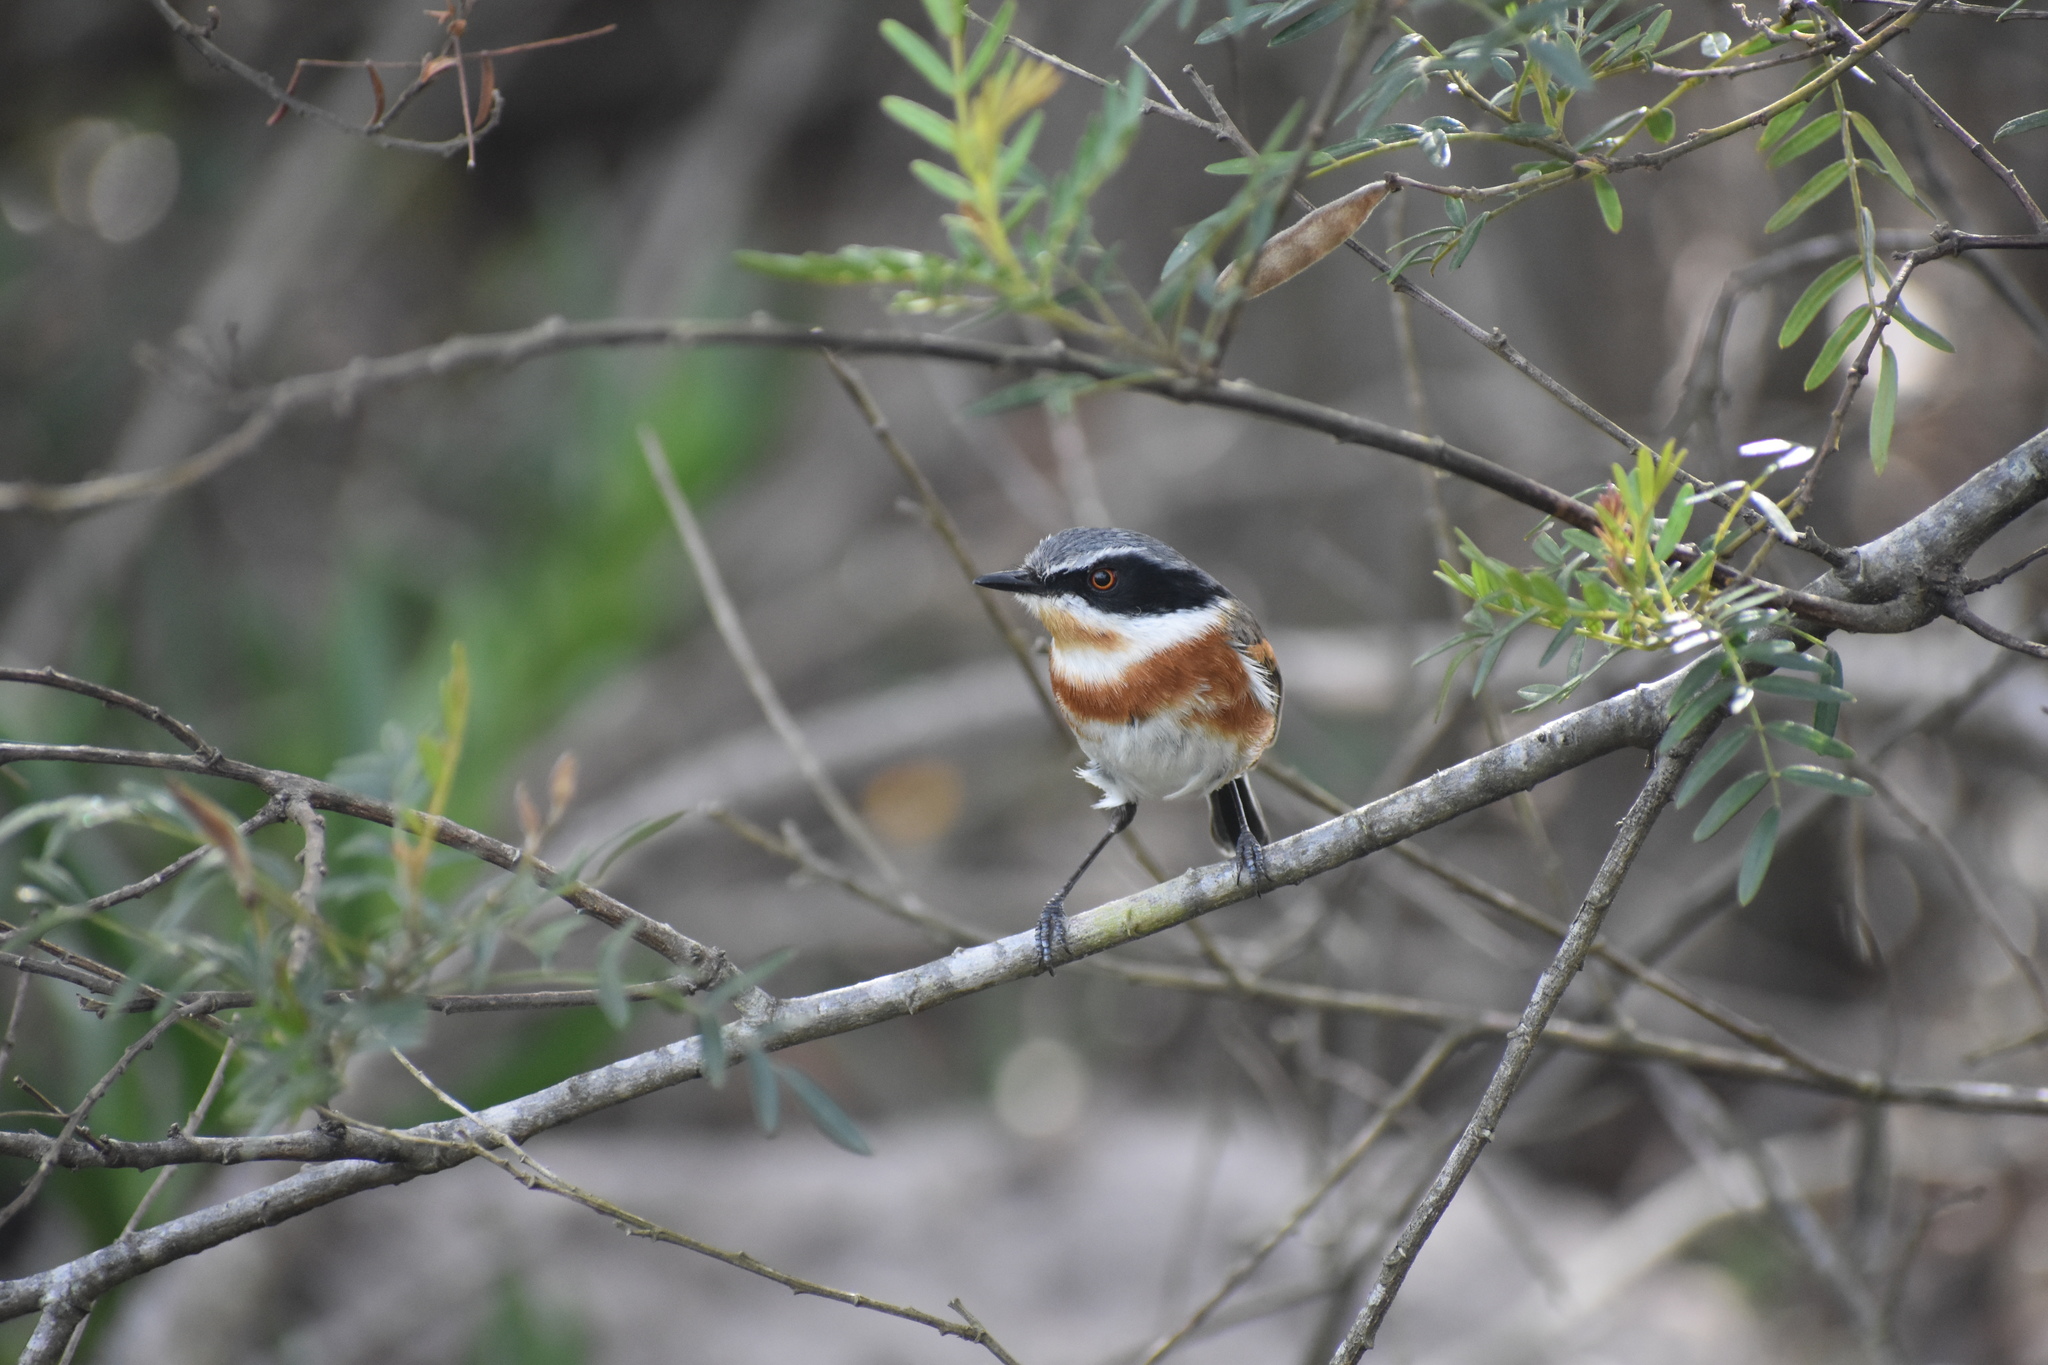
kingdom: Animalia
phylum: Chordata
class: Aves
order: Passeriformes
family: Platysteiridae
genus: Batis
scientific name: Batis capensis
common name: Cape batis
